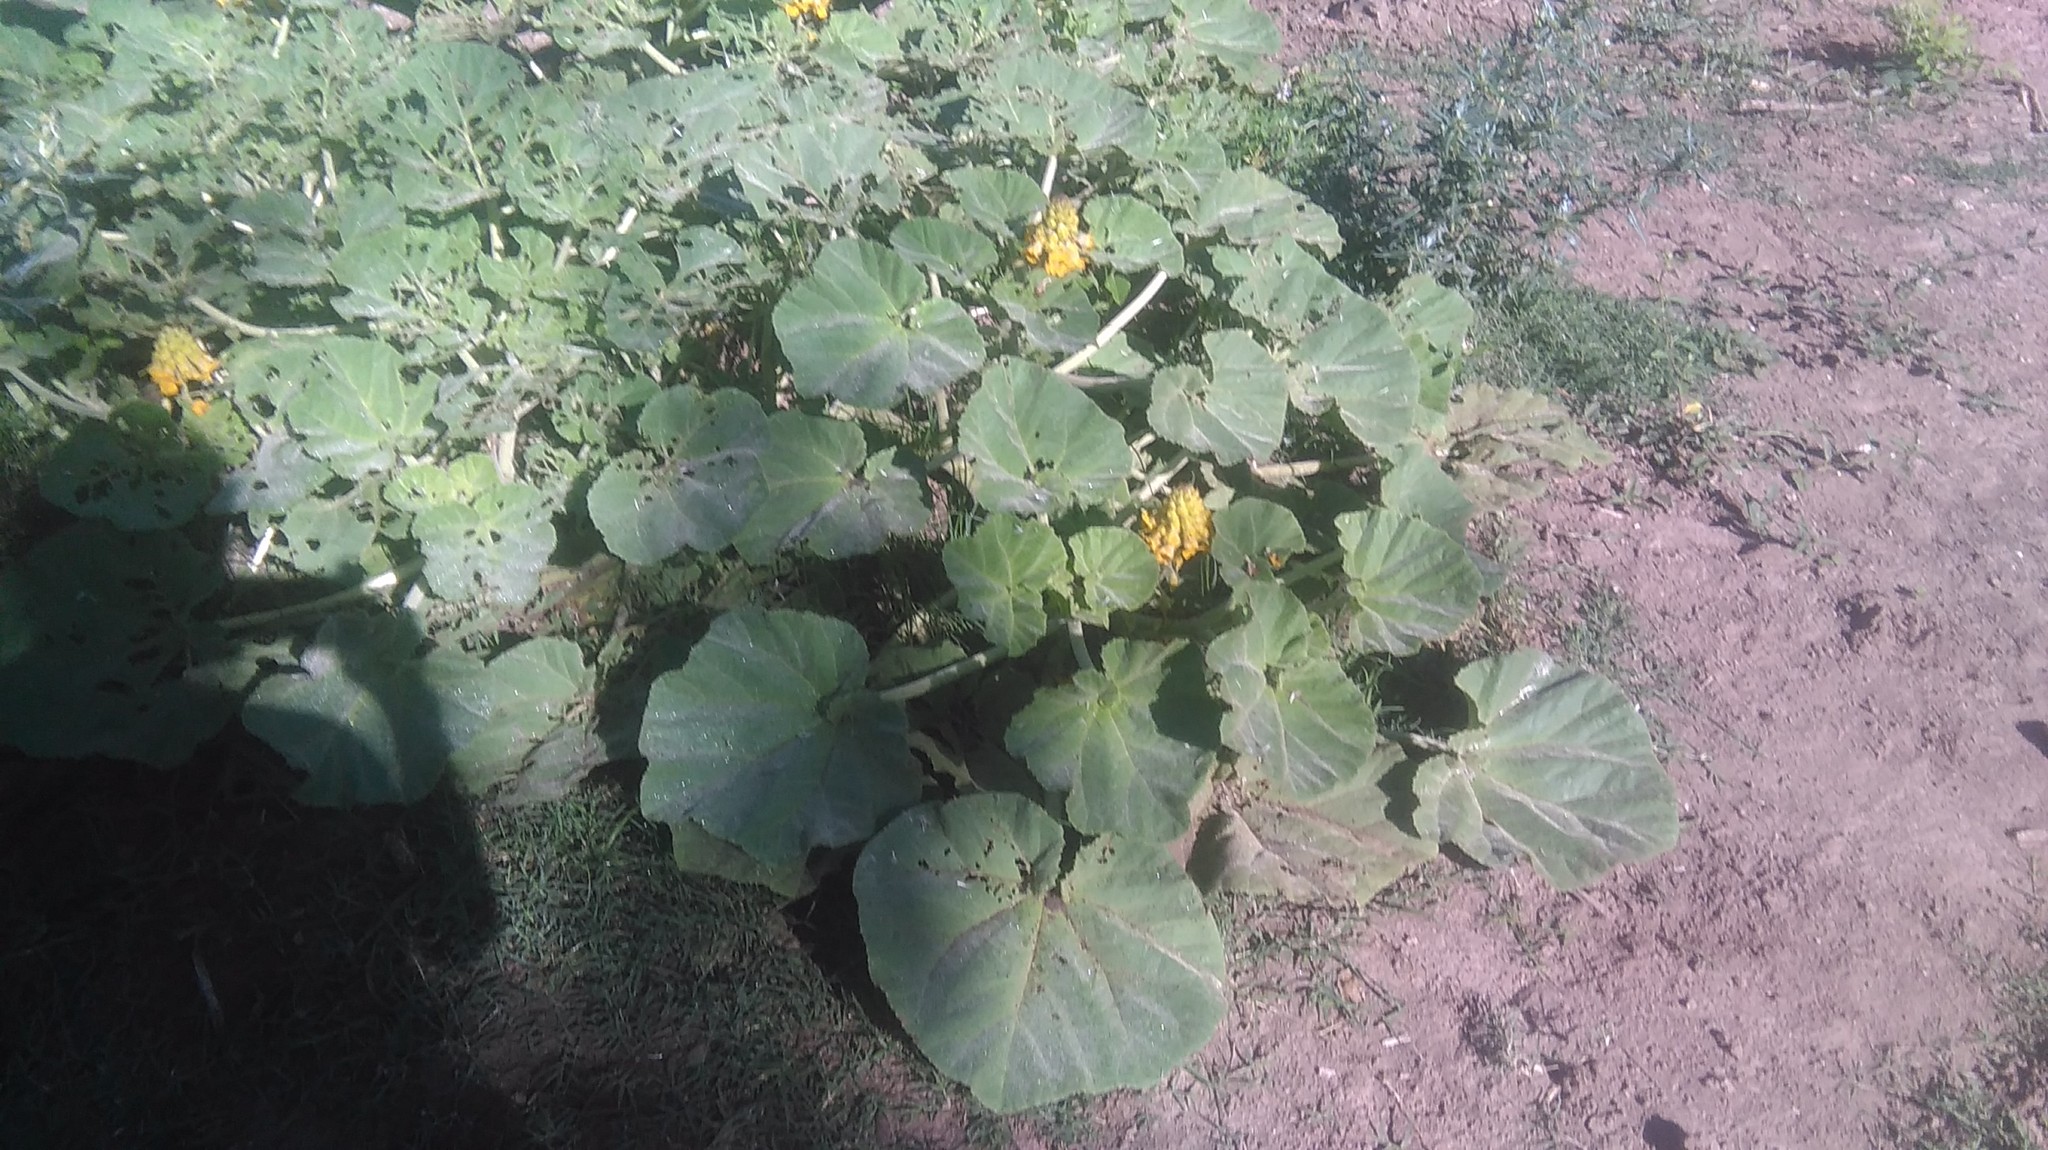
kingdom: Plantae
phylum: Tracheophyta
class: Magnoliopsida
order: Lamiales
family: Martyniaceae
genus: Ibicella
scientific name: Ibicella lutea
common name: Yellow unicorn-plant
